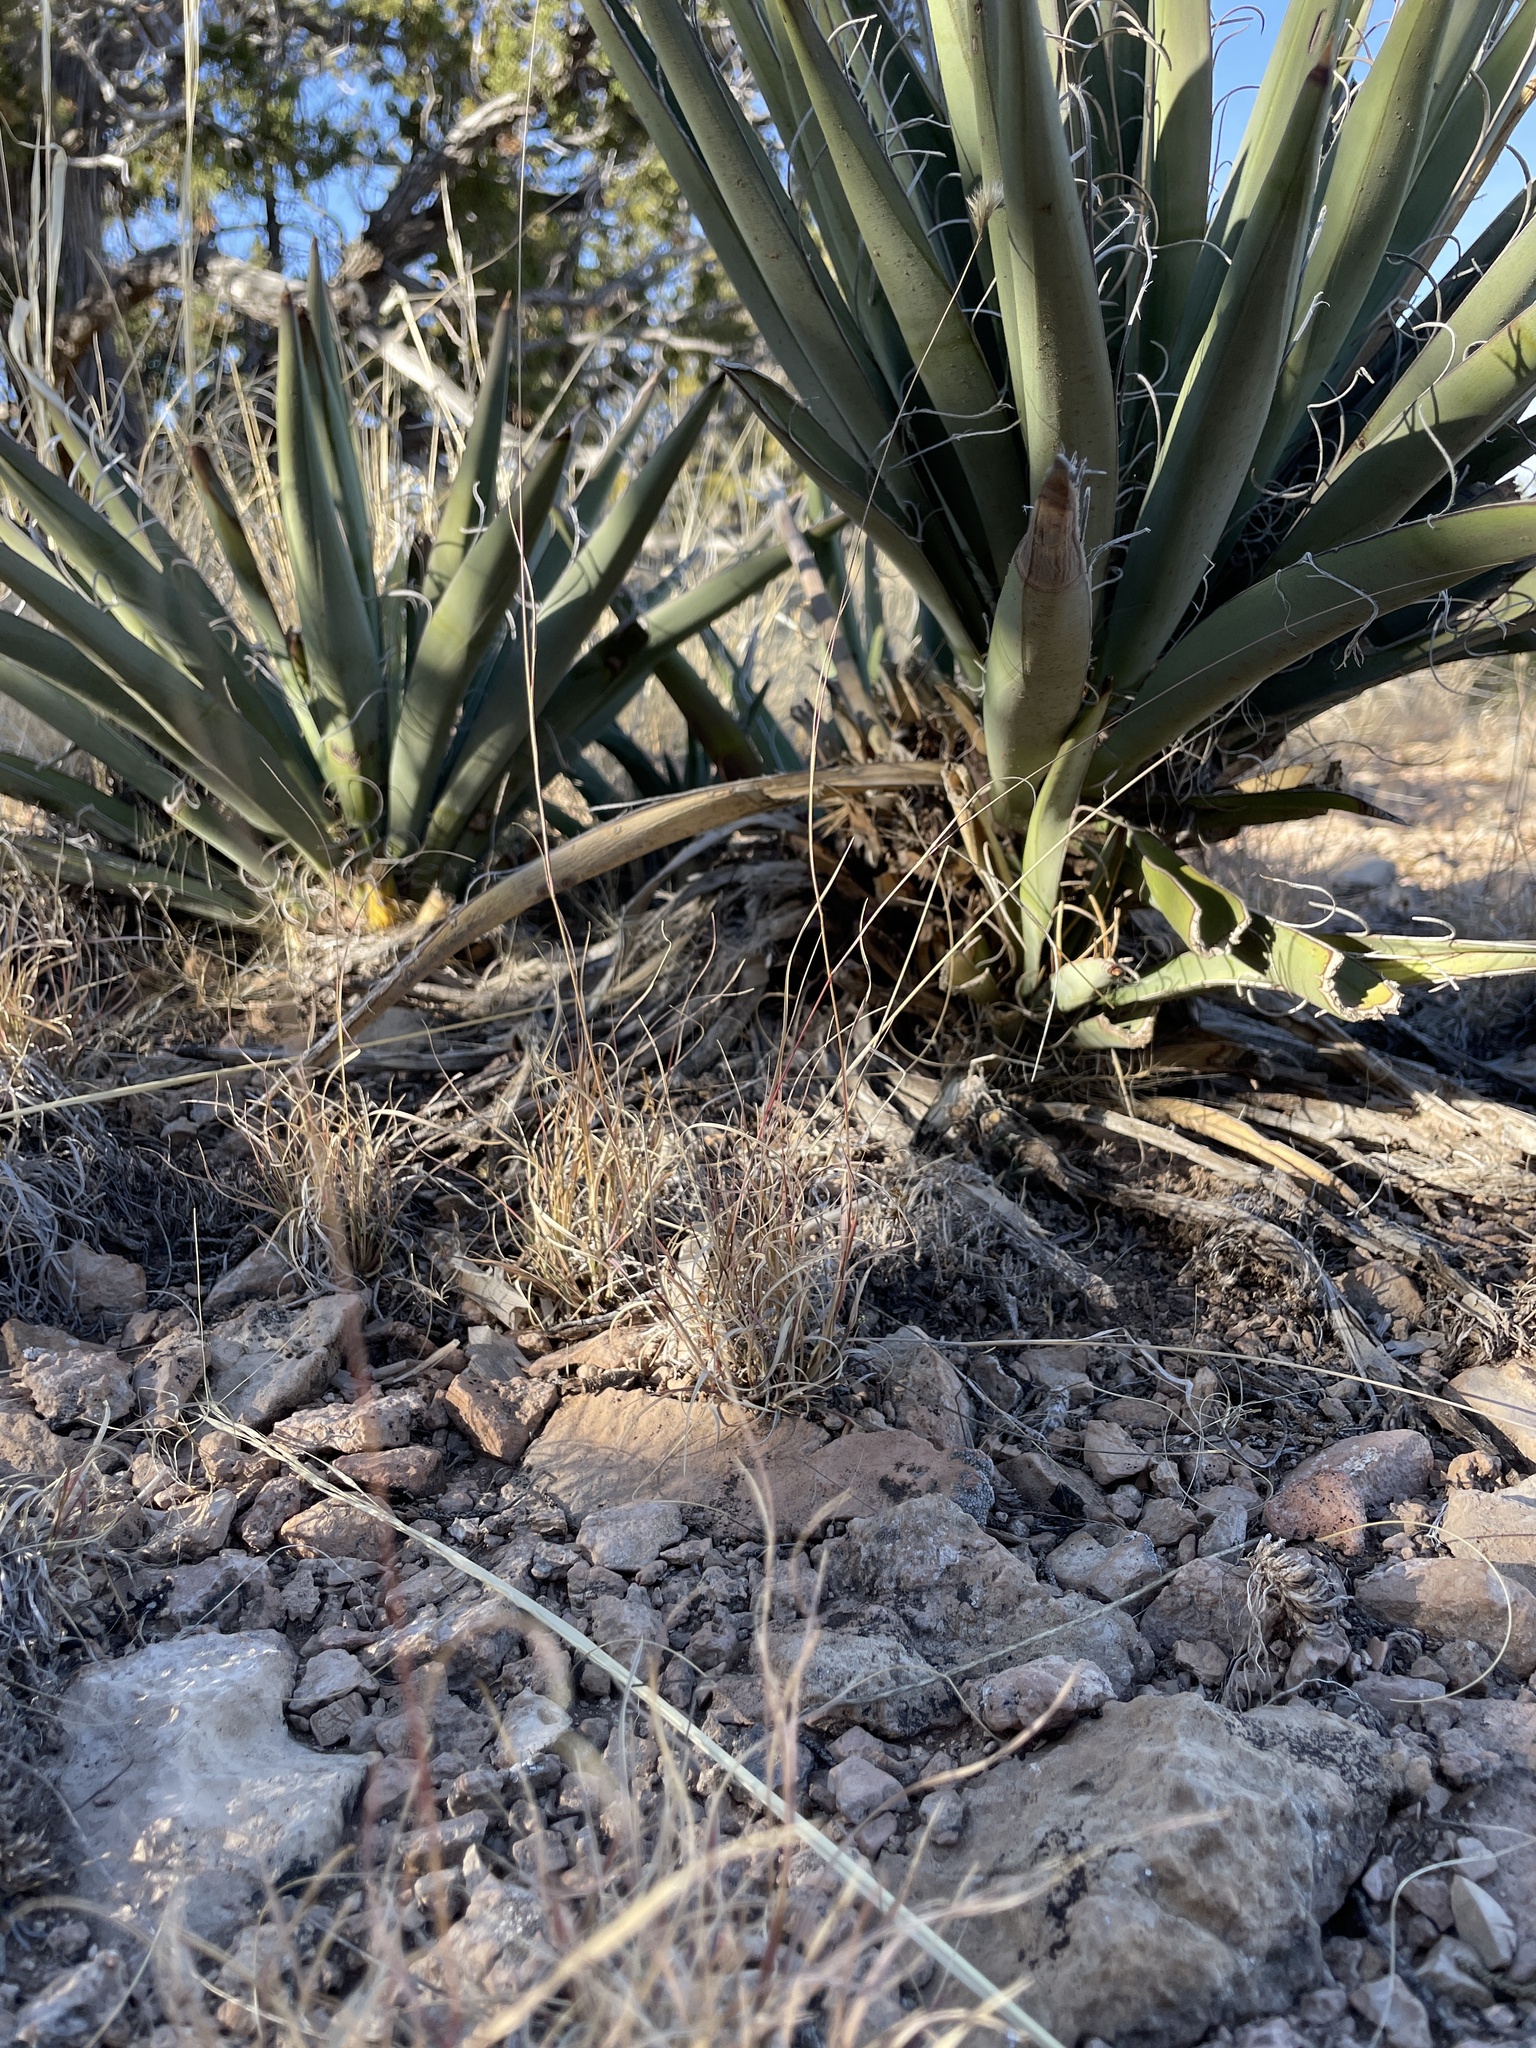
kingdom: Plantae
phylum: Tracheophyta
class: Liliopsida
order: Asparagales
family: Asparagaceae
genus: Yucca
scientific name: Yucca baccata
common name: Banana yucca
